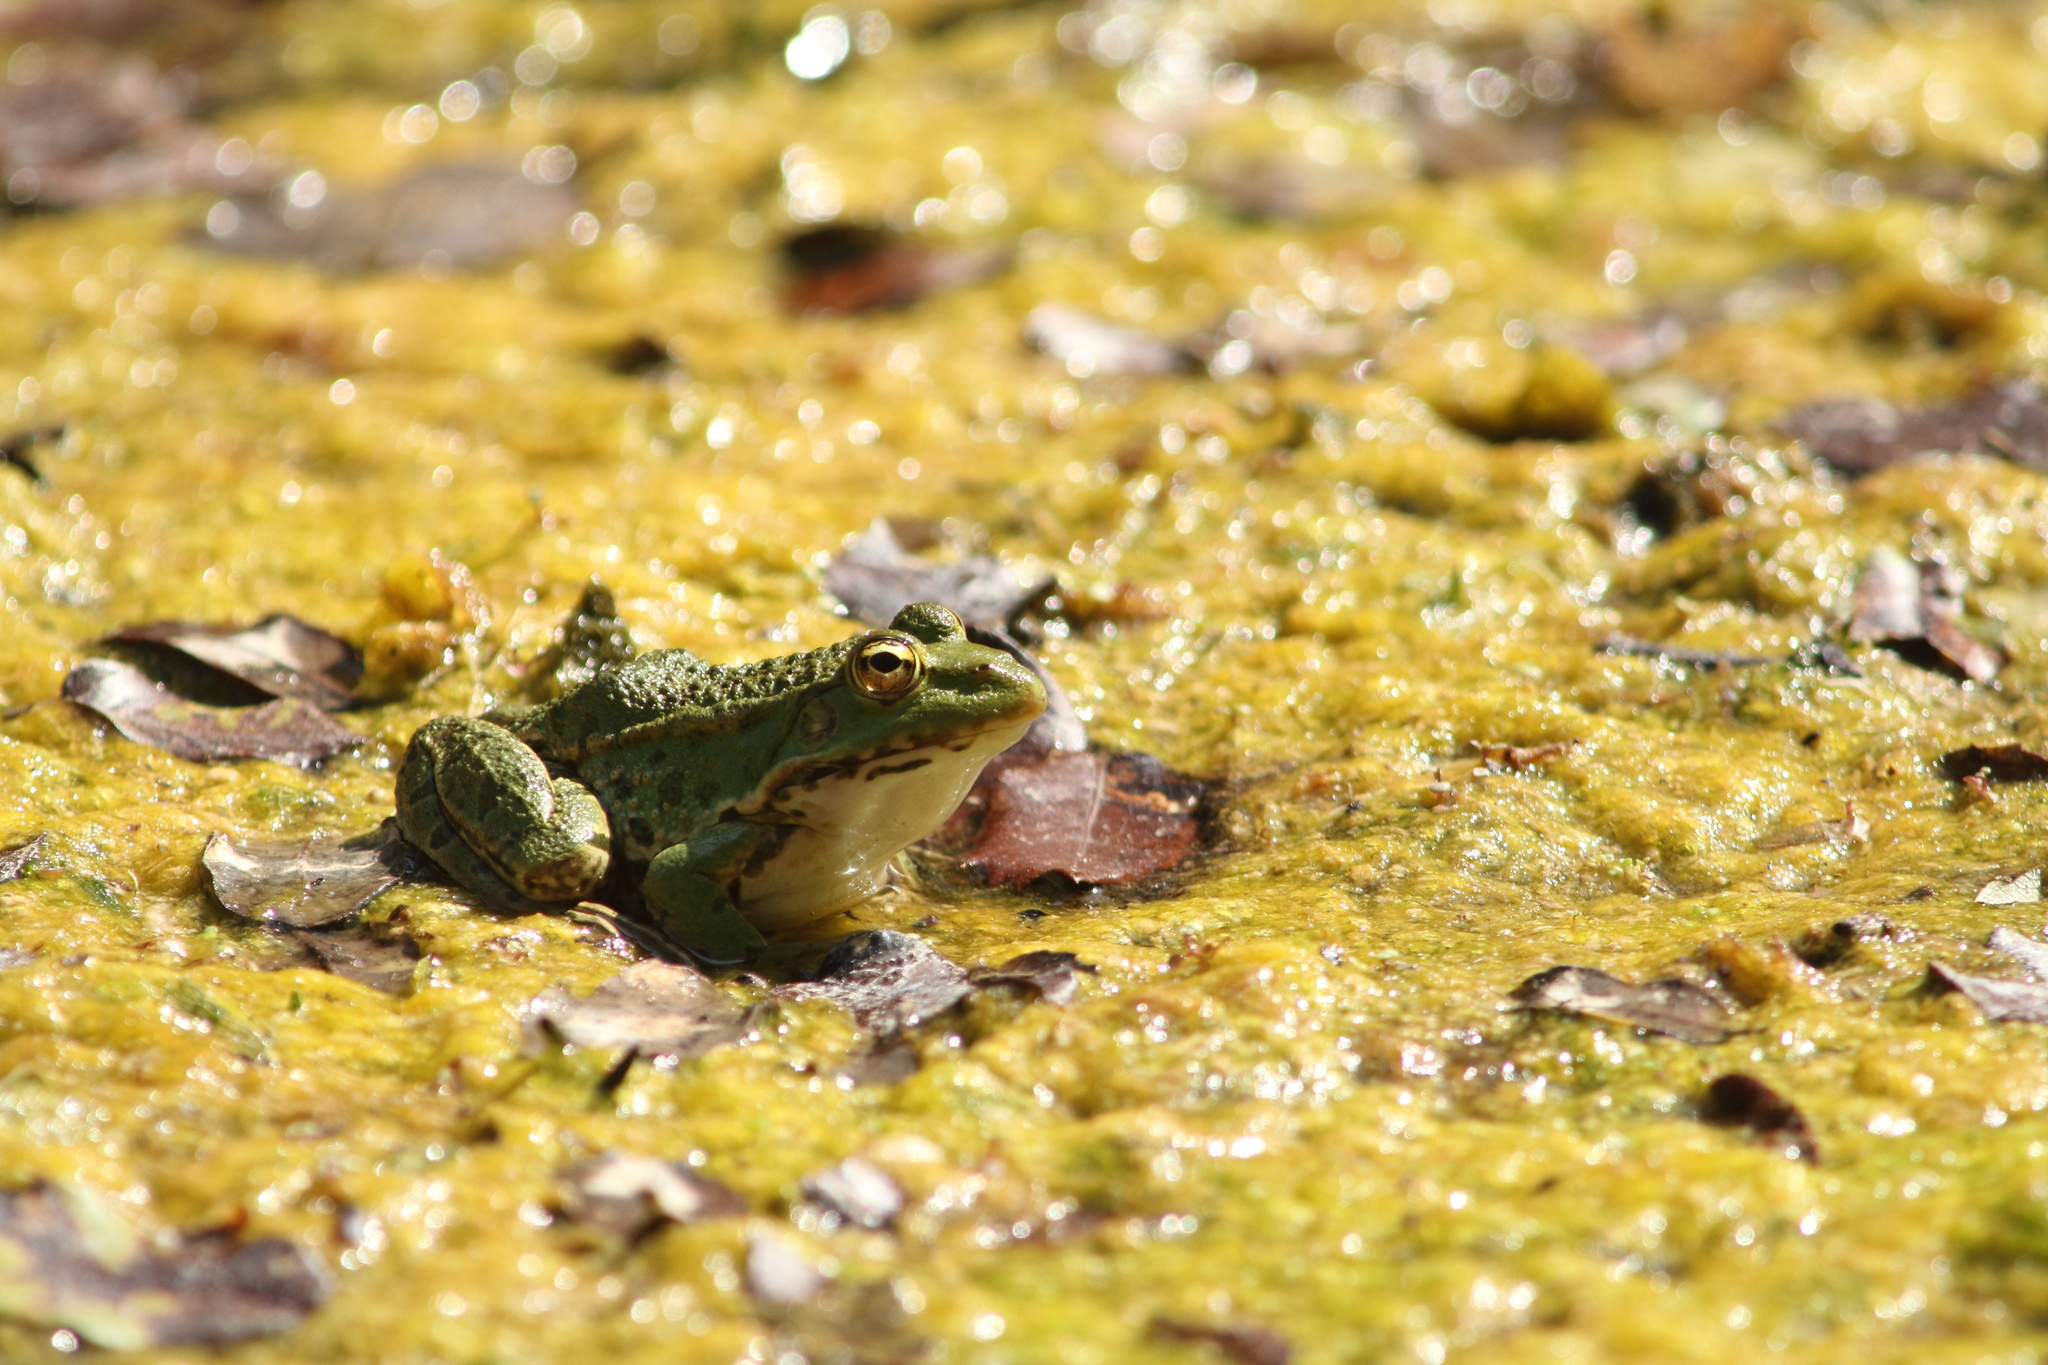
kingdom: Animalia
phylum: Chordata
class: Amphibia
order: Anura
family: Ranidae
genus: Pelophylax
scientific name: Pelophylax
